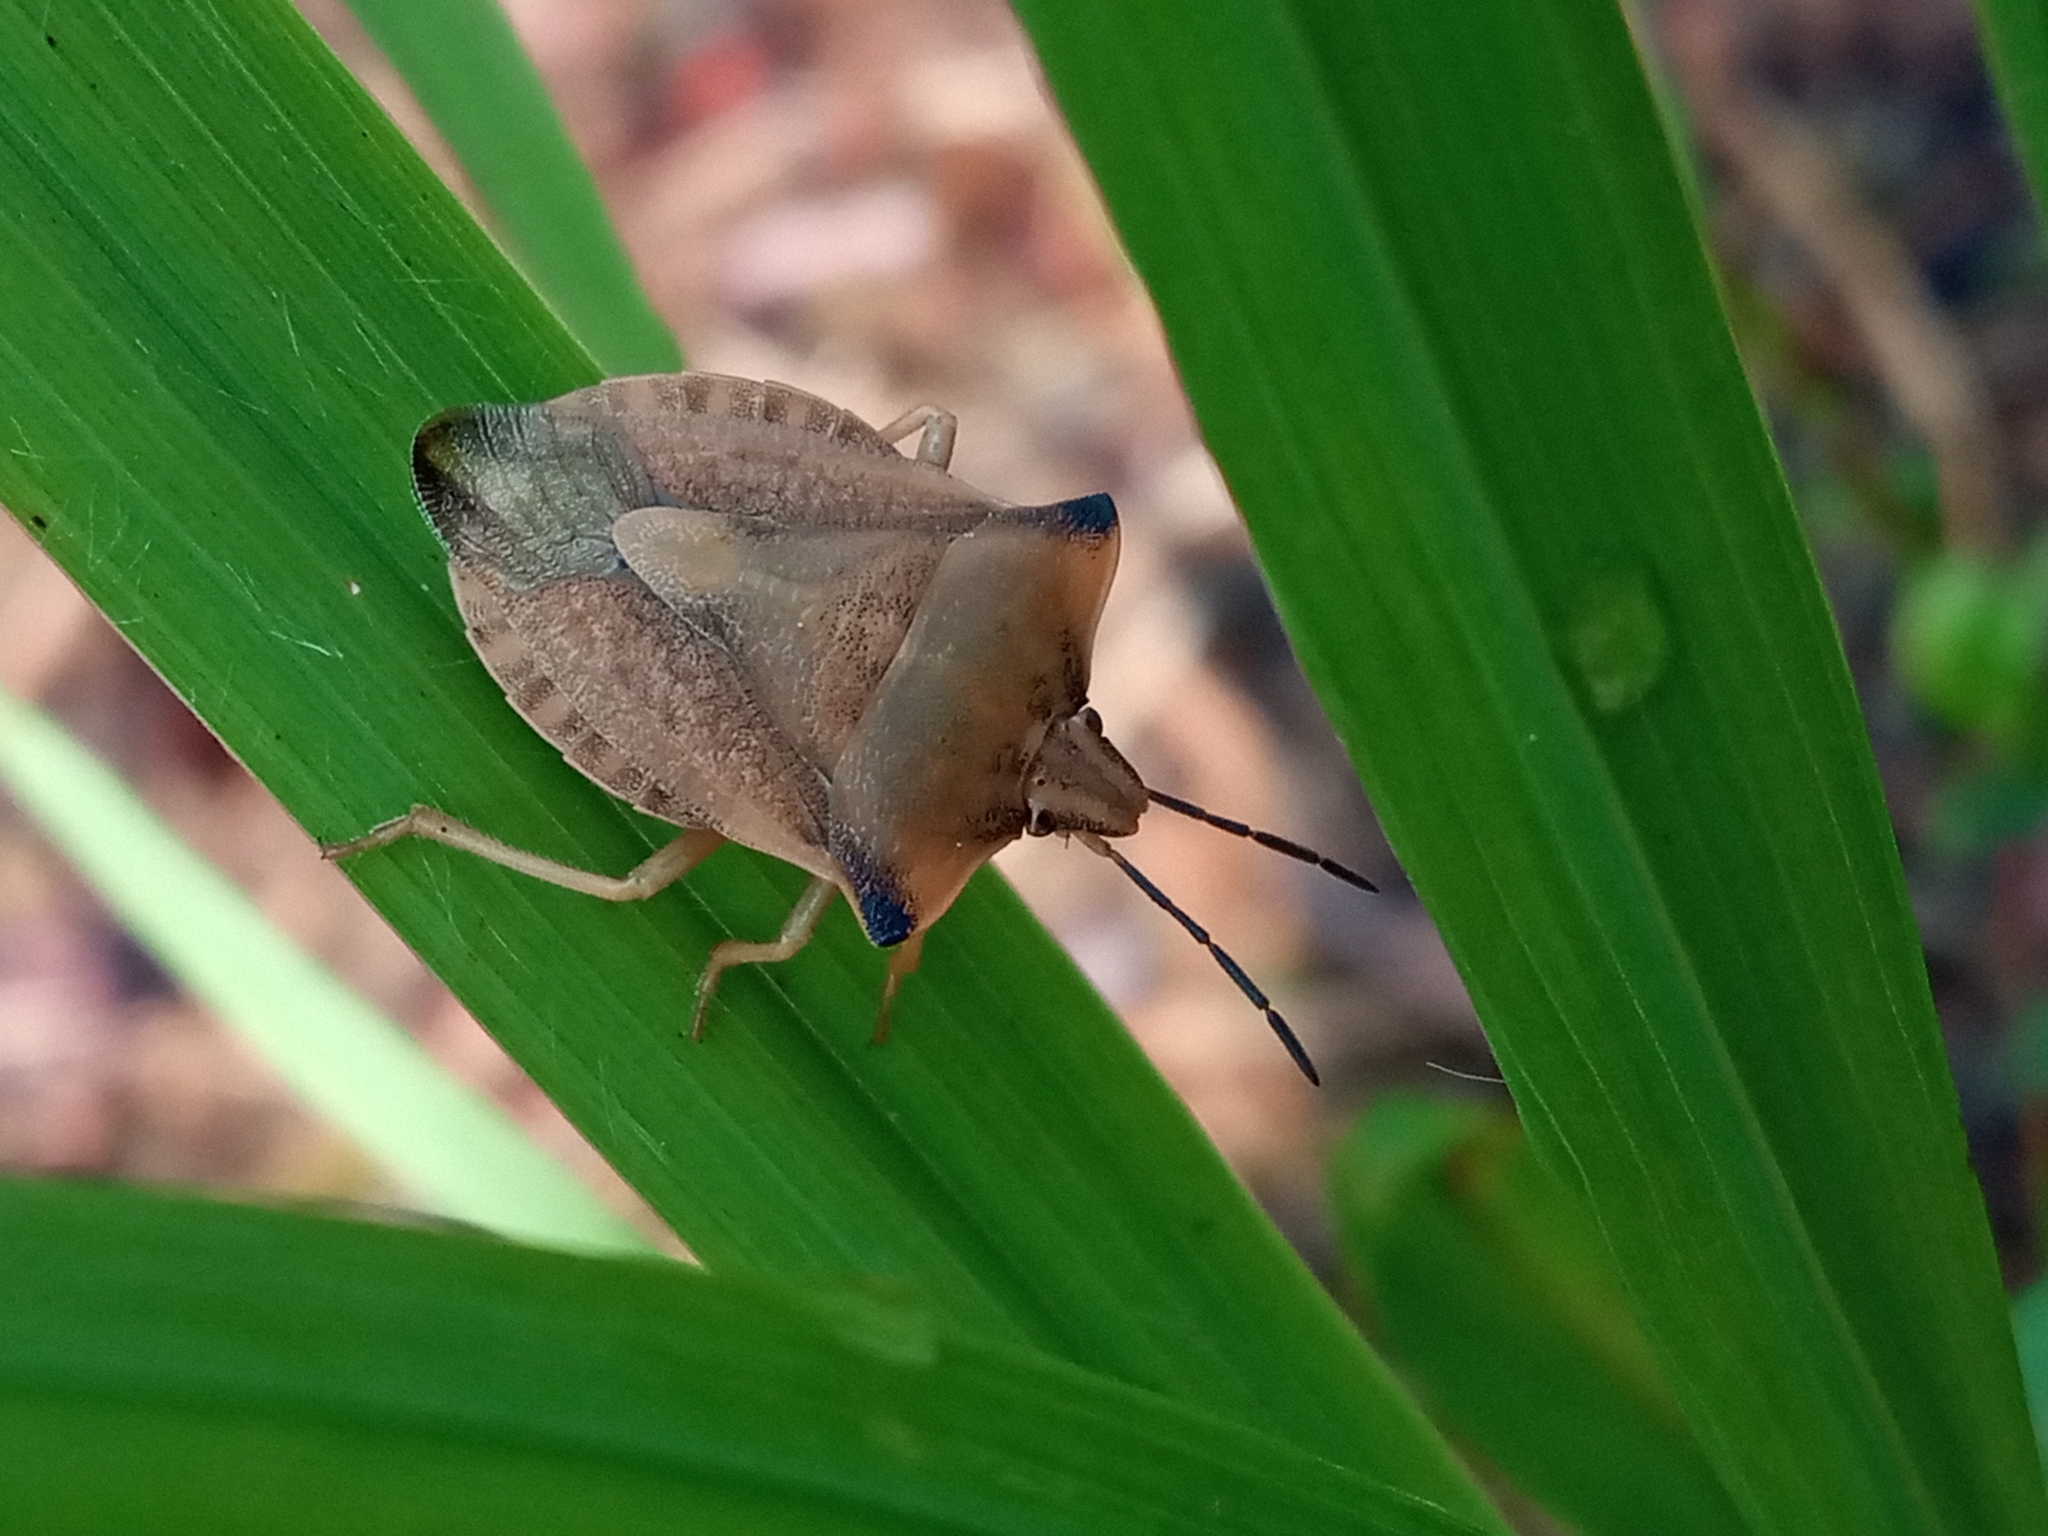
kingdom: Animalia
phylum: Arthropoda
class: Insecta
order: Hemiptera
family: Pentatomidae
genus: Carpocoris
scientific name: Carpocoris fuscispinus
